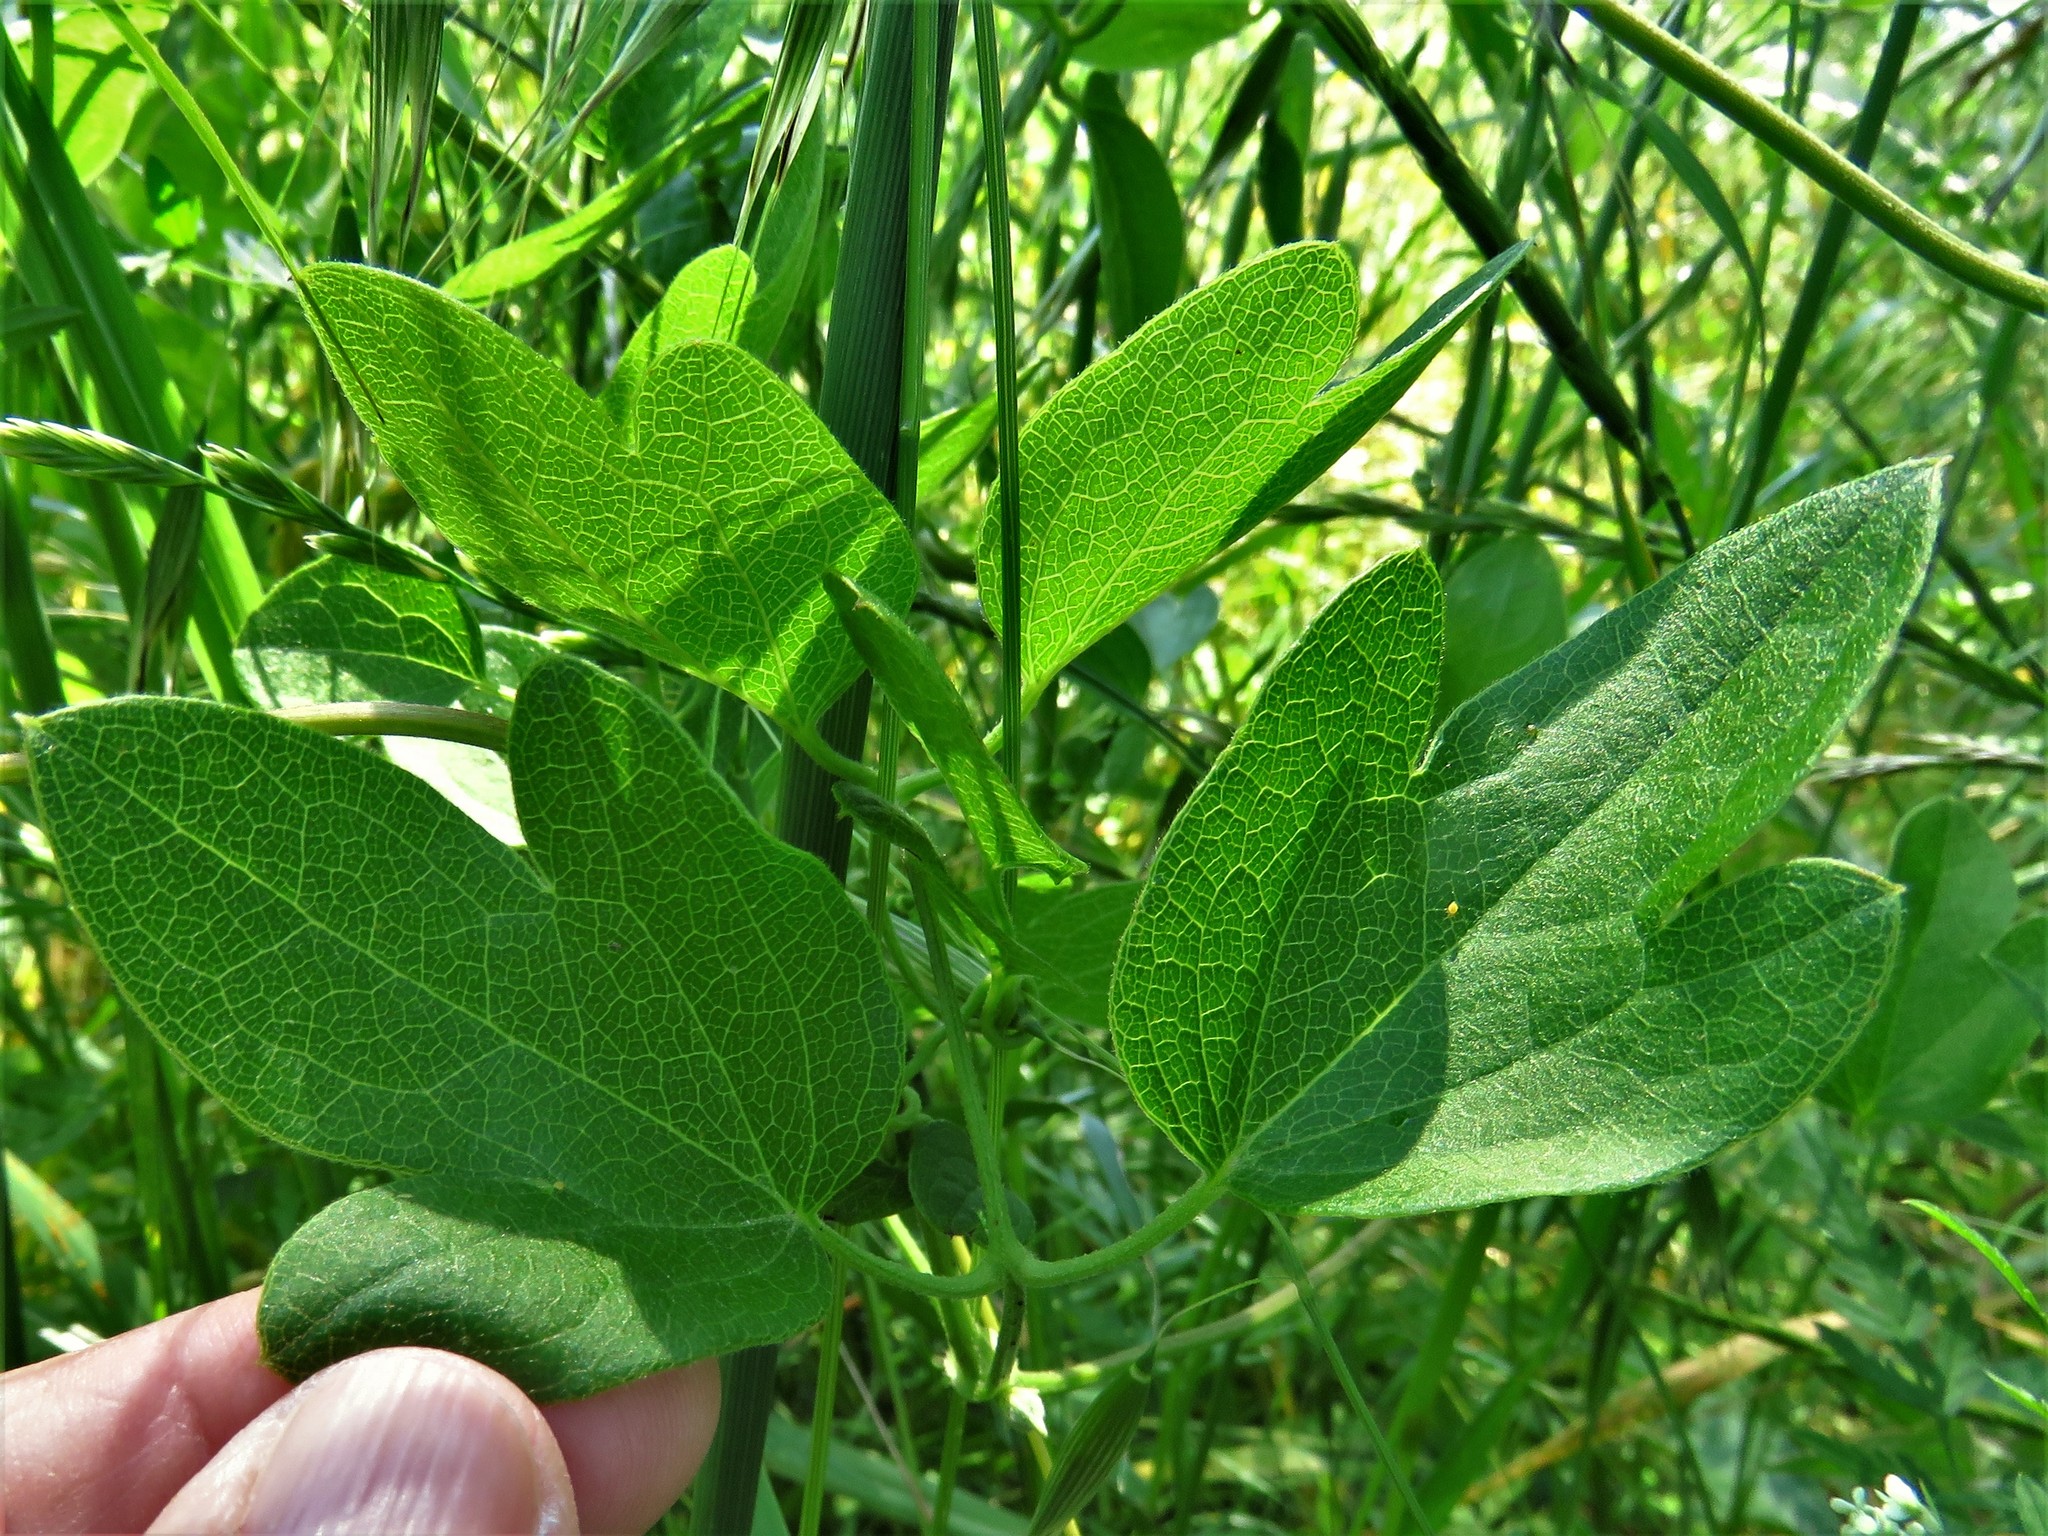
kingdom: Plantae
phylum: Tracheophyta
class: Magnoliopsida
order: Ranunculales
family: Ranunculaceae
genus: Clematis
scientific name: Clematis pitcheri
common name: Bellflower clematis
